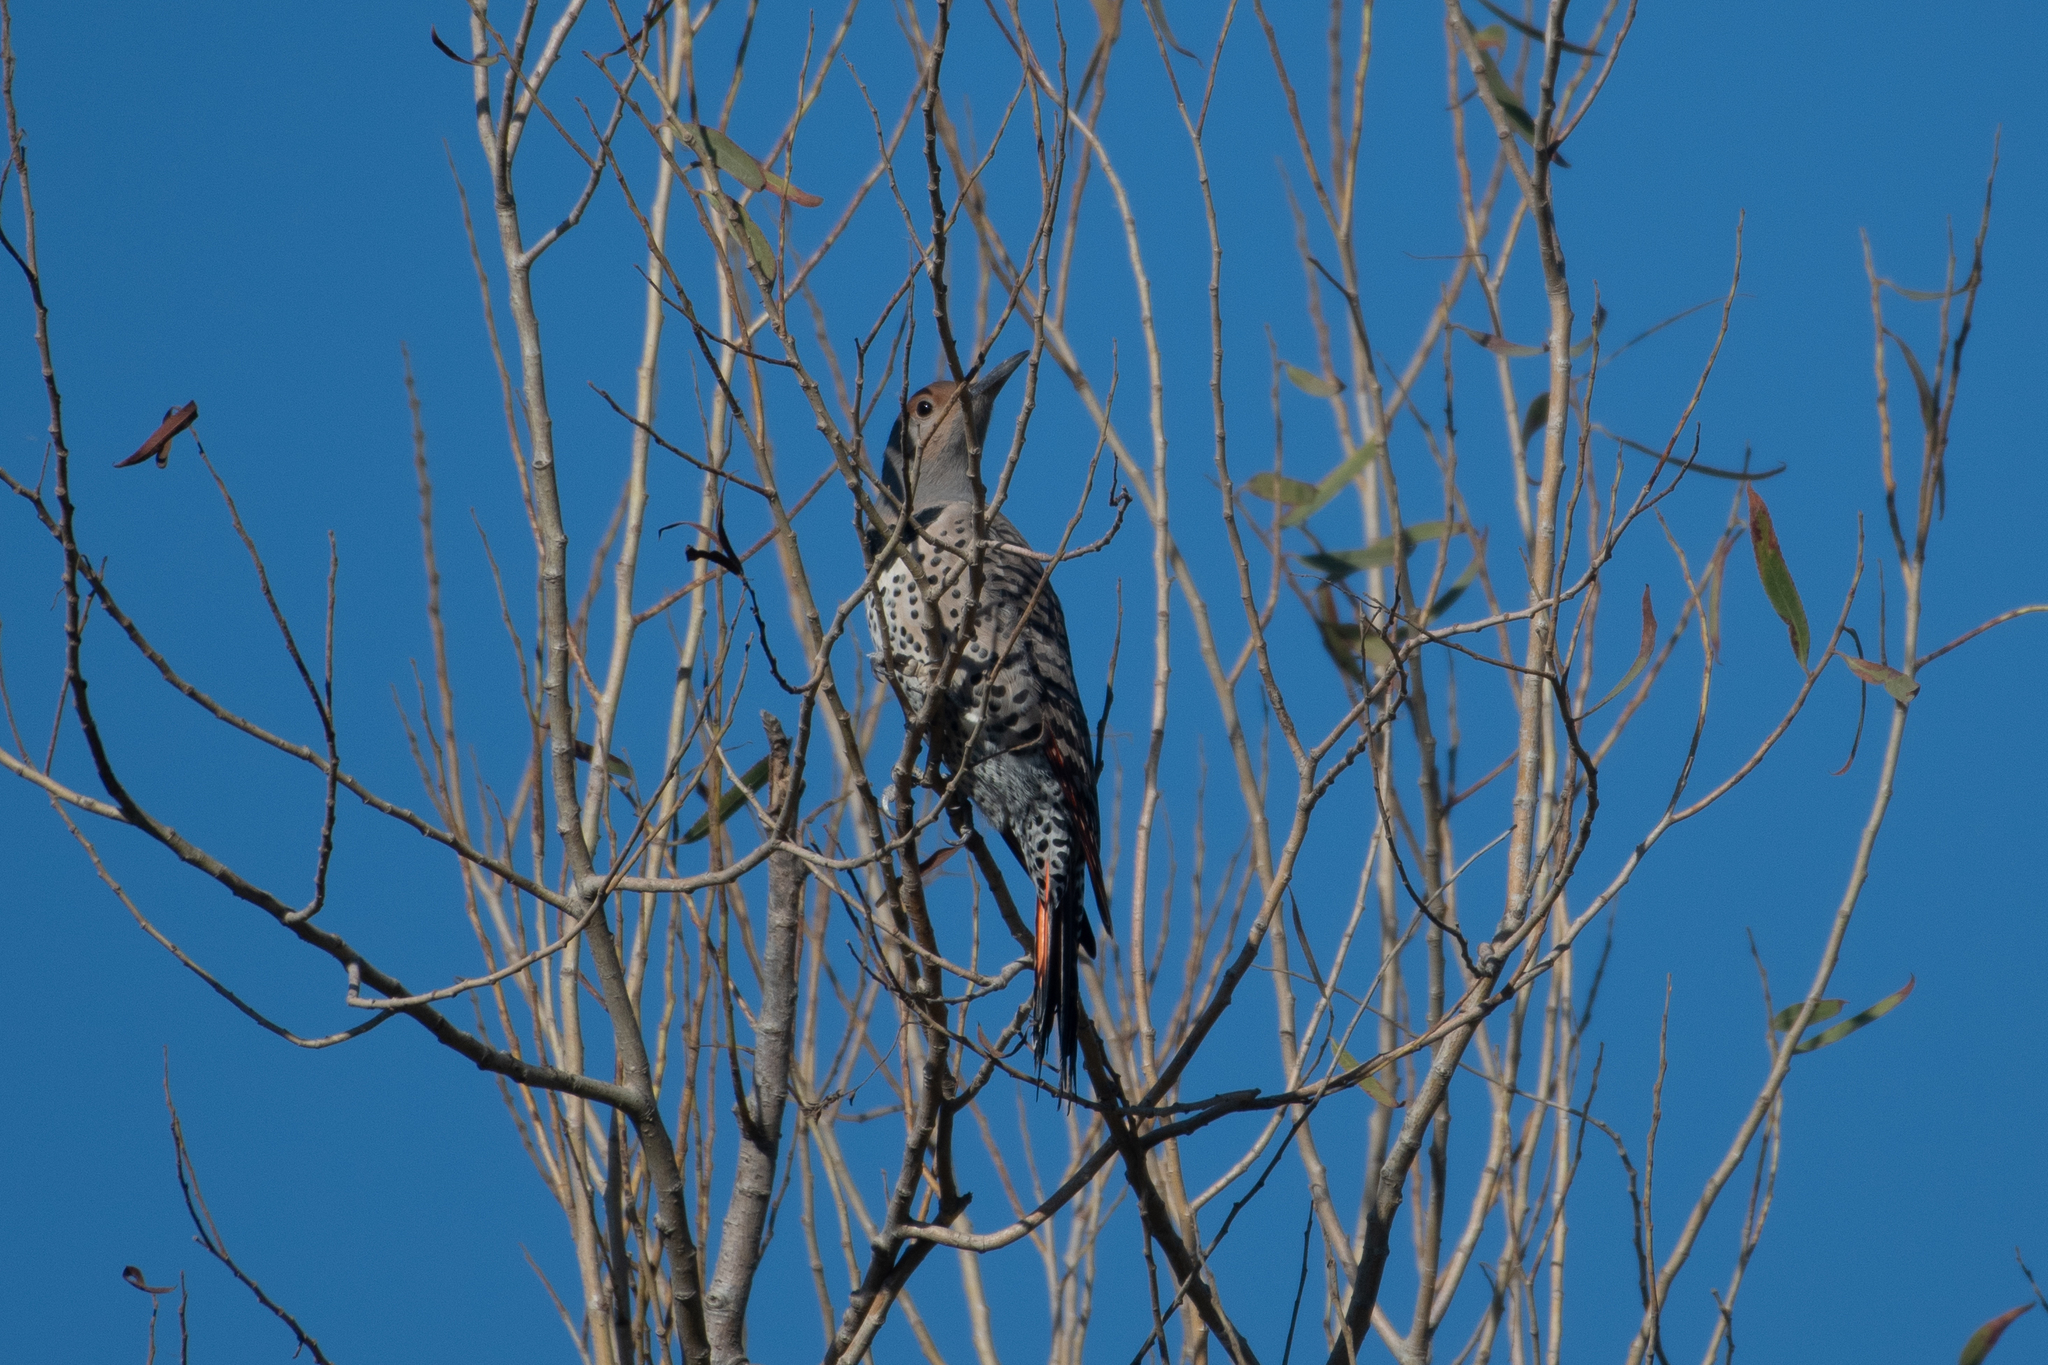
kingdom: Animalia
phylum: Chordata
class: Aves
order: Piciformes
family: Picidae
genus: Colaptes
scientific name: Colaptes auratus
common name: Northern flicker
